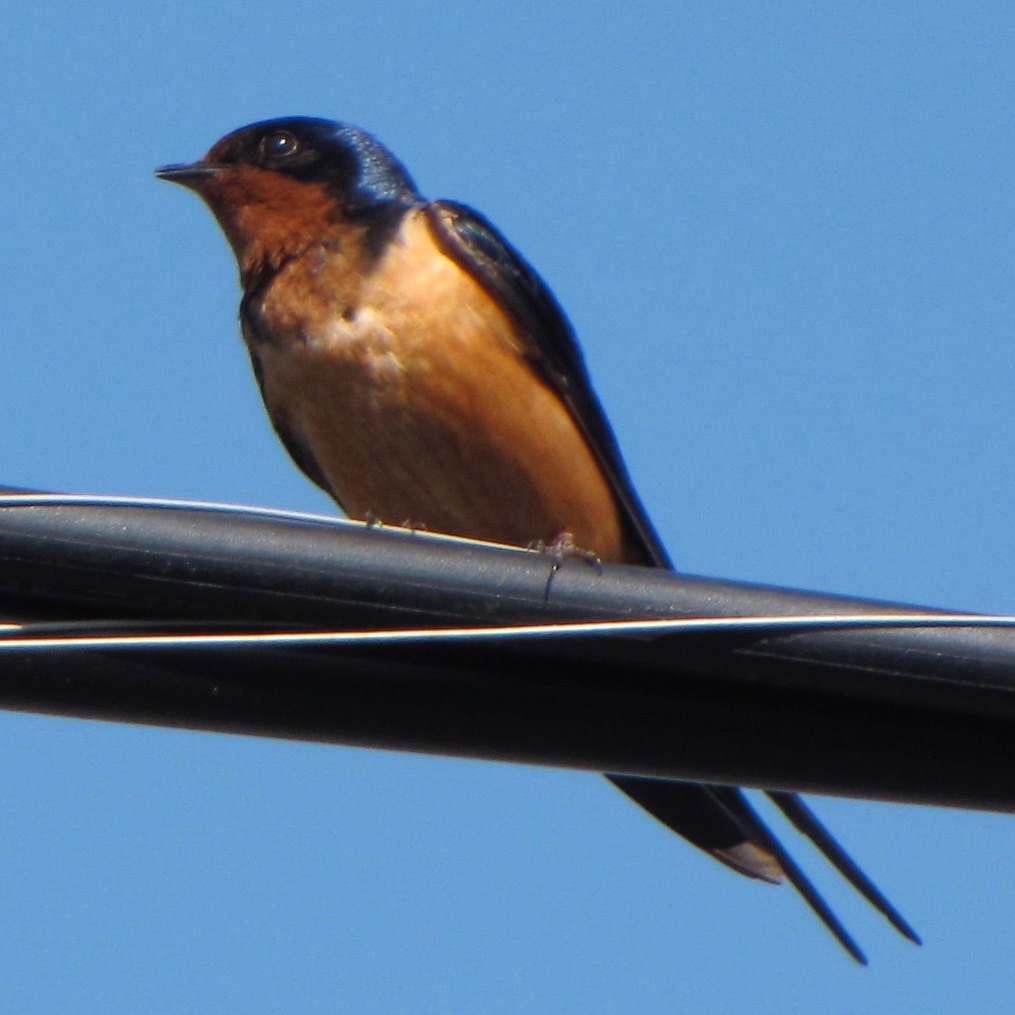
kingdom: Animalia
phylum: Chordata
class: Aves
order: Passeriformes
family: Hirundinidae
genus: Hirundo
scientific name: Hirundo rustica
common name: Barn swallow
